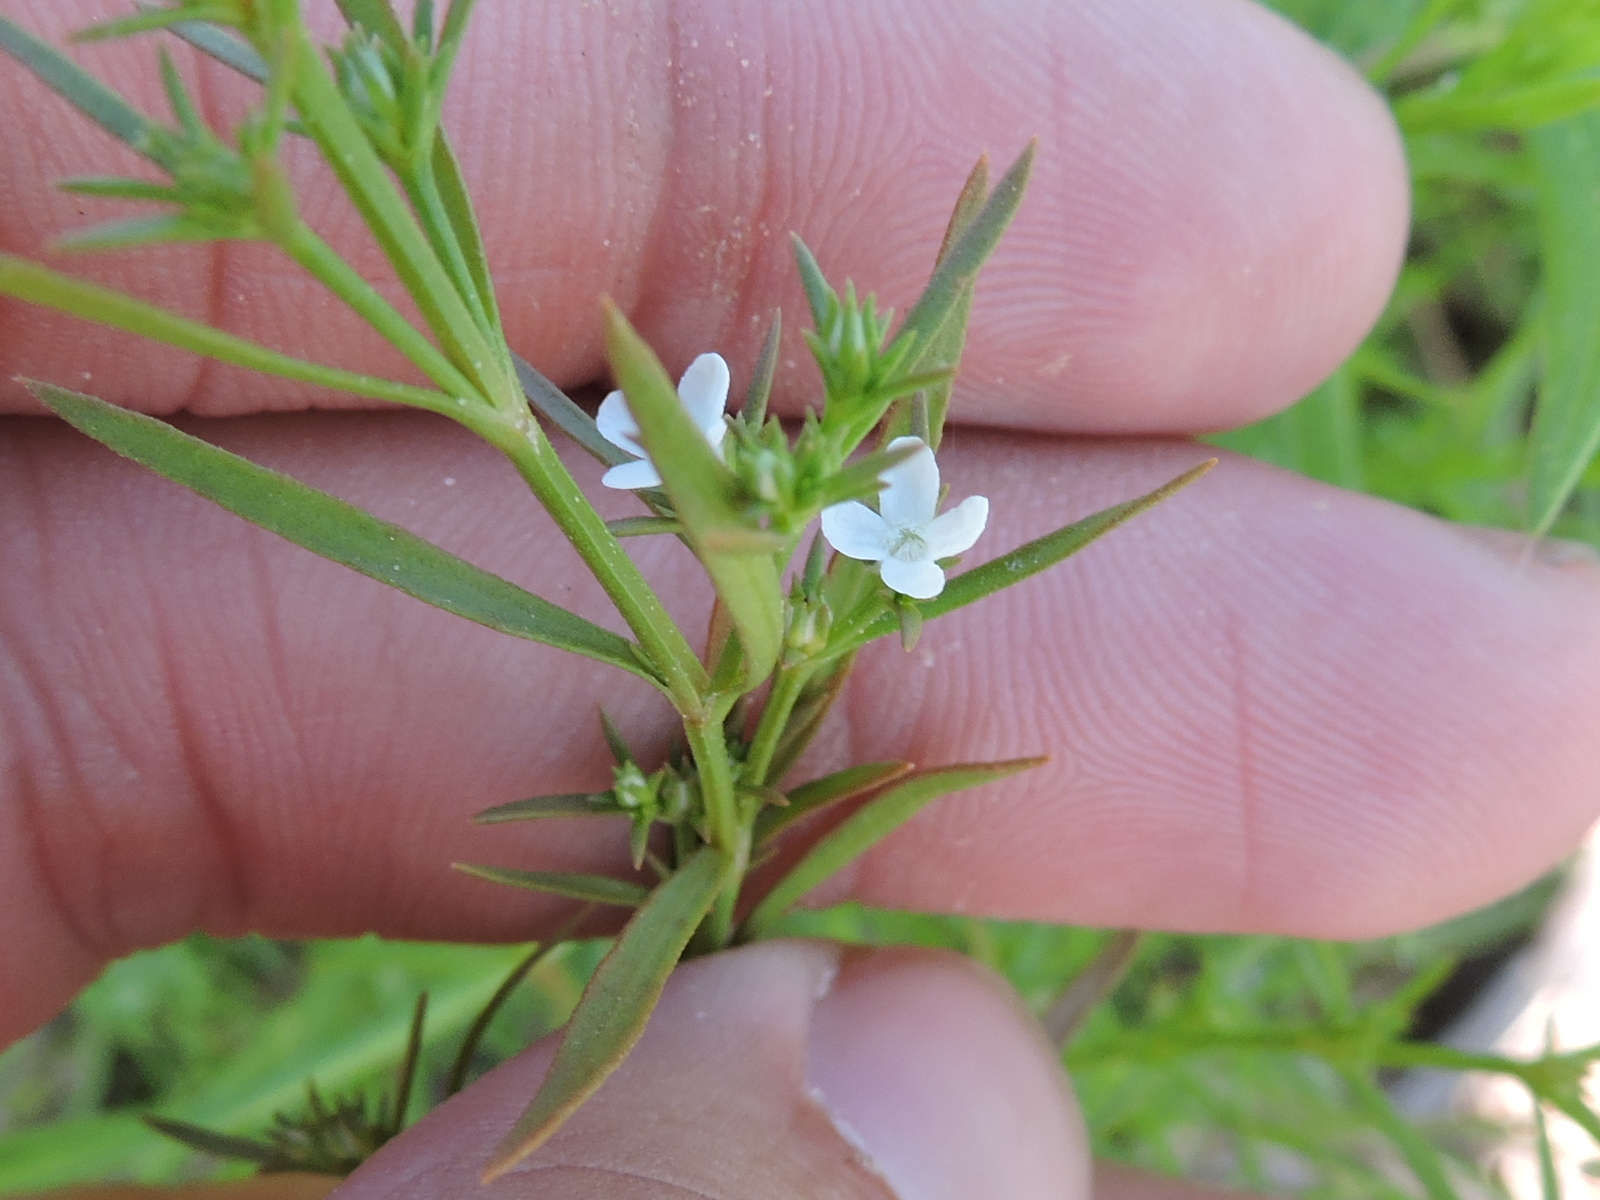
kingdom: Plantae
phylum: Tracheophyta
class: Magnoliopsida
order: Lamiales
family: Tetrachondraceae
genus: Polypremum
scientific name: Polypremum procumbens
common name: Juniper-leaf
